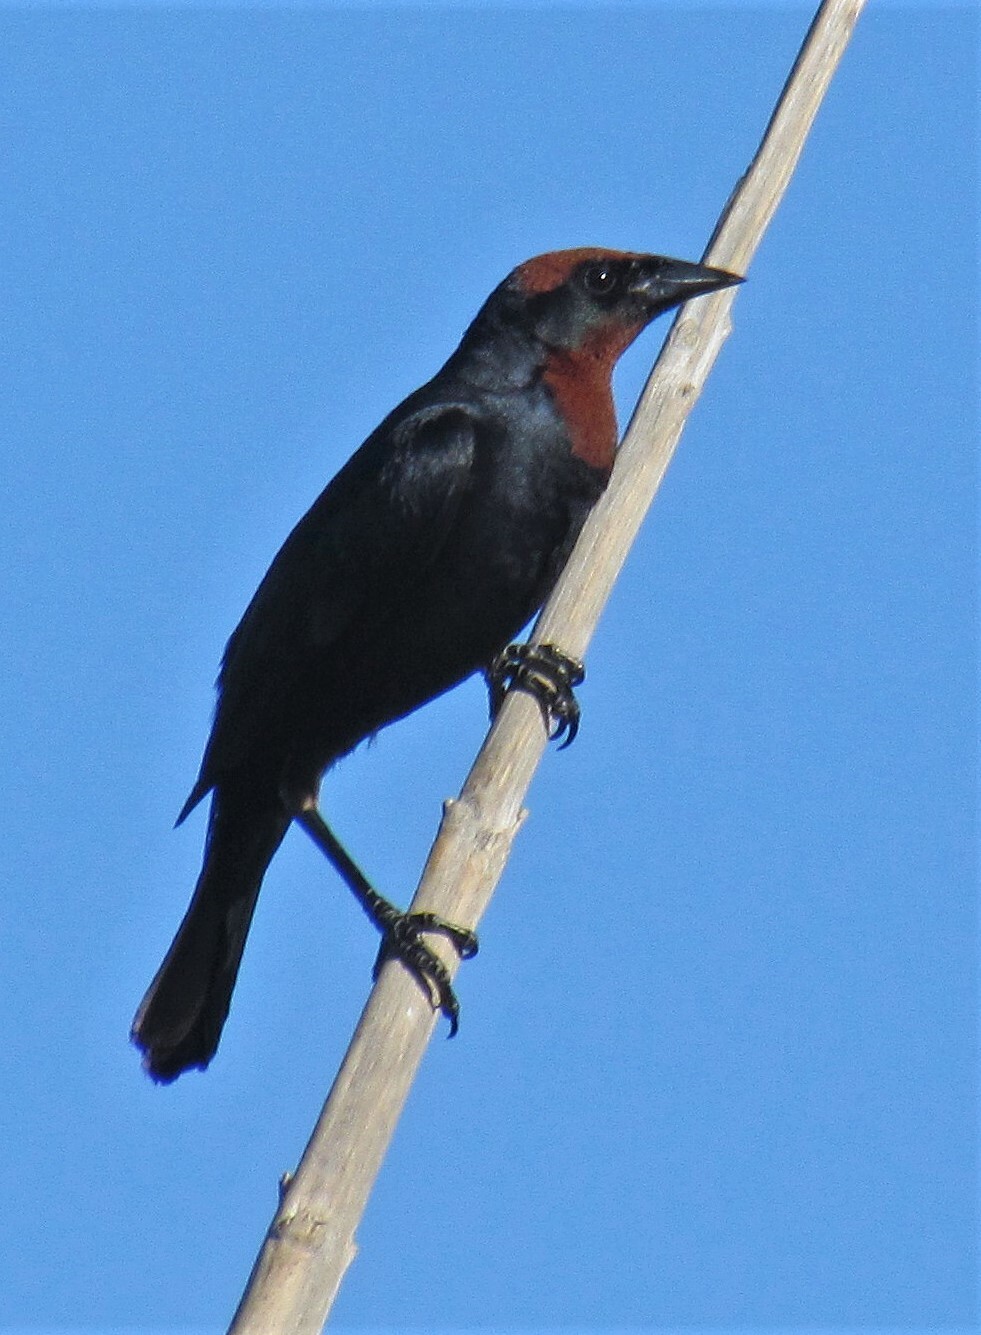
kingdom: Animalia
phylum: Chordata
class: Aves
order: Passeriformes
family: Icteridae
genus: Chrysomus
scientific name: Chrysomus ruficapillus
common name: Chestnut-capped blackbird
